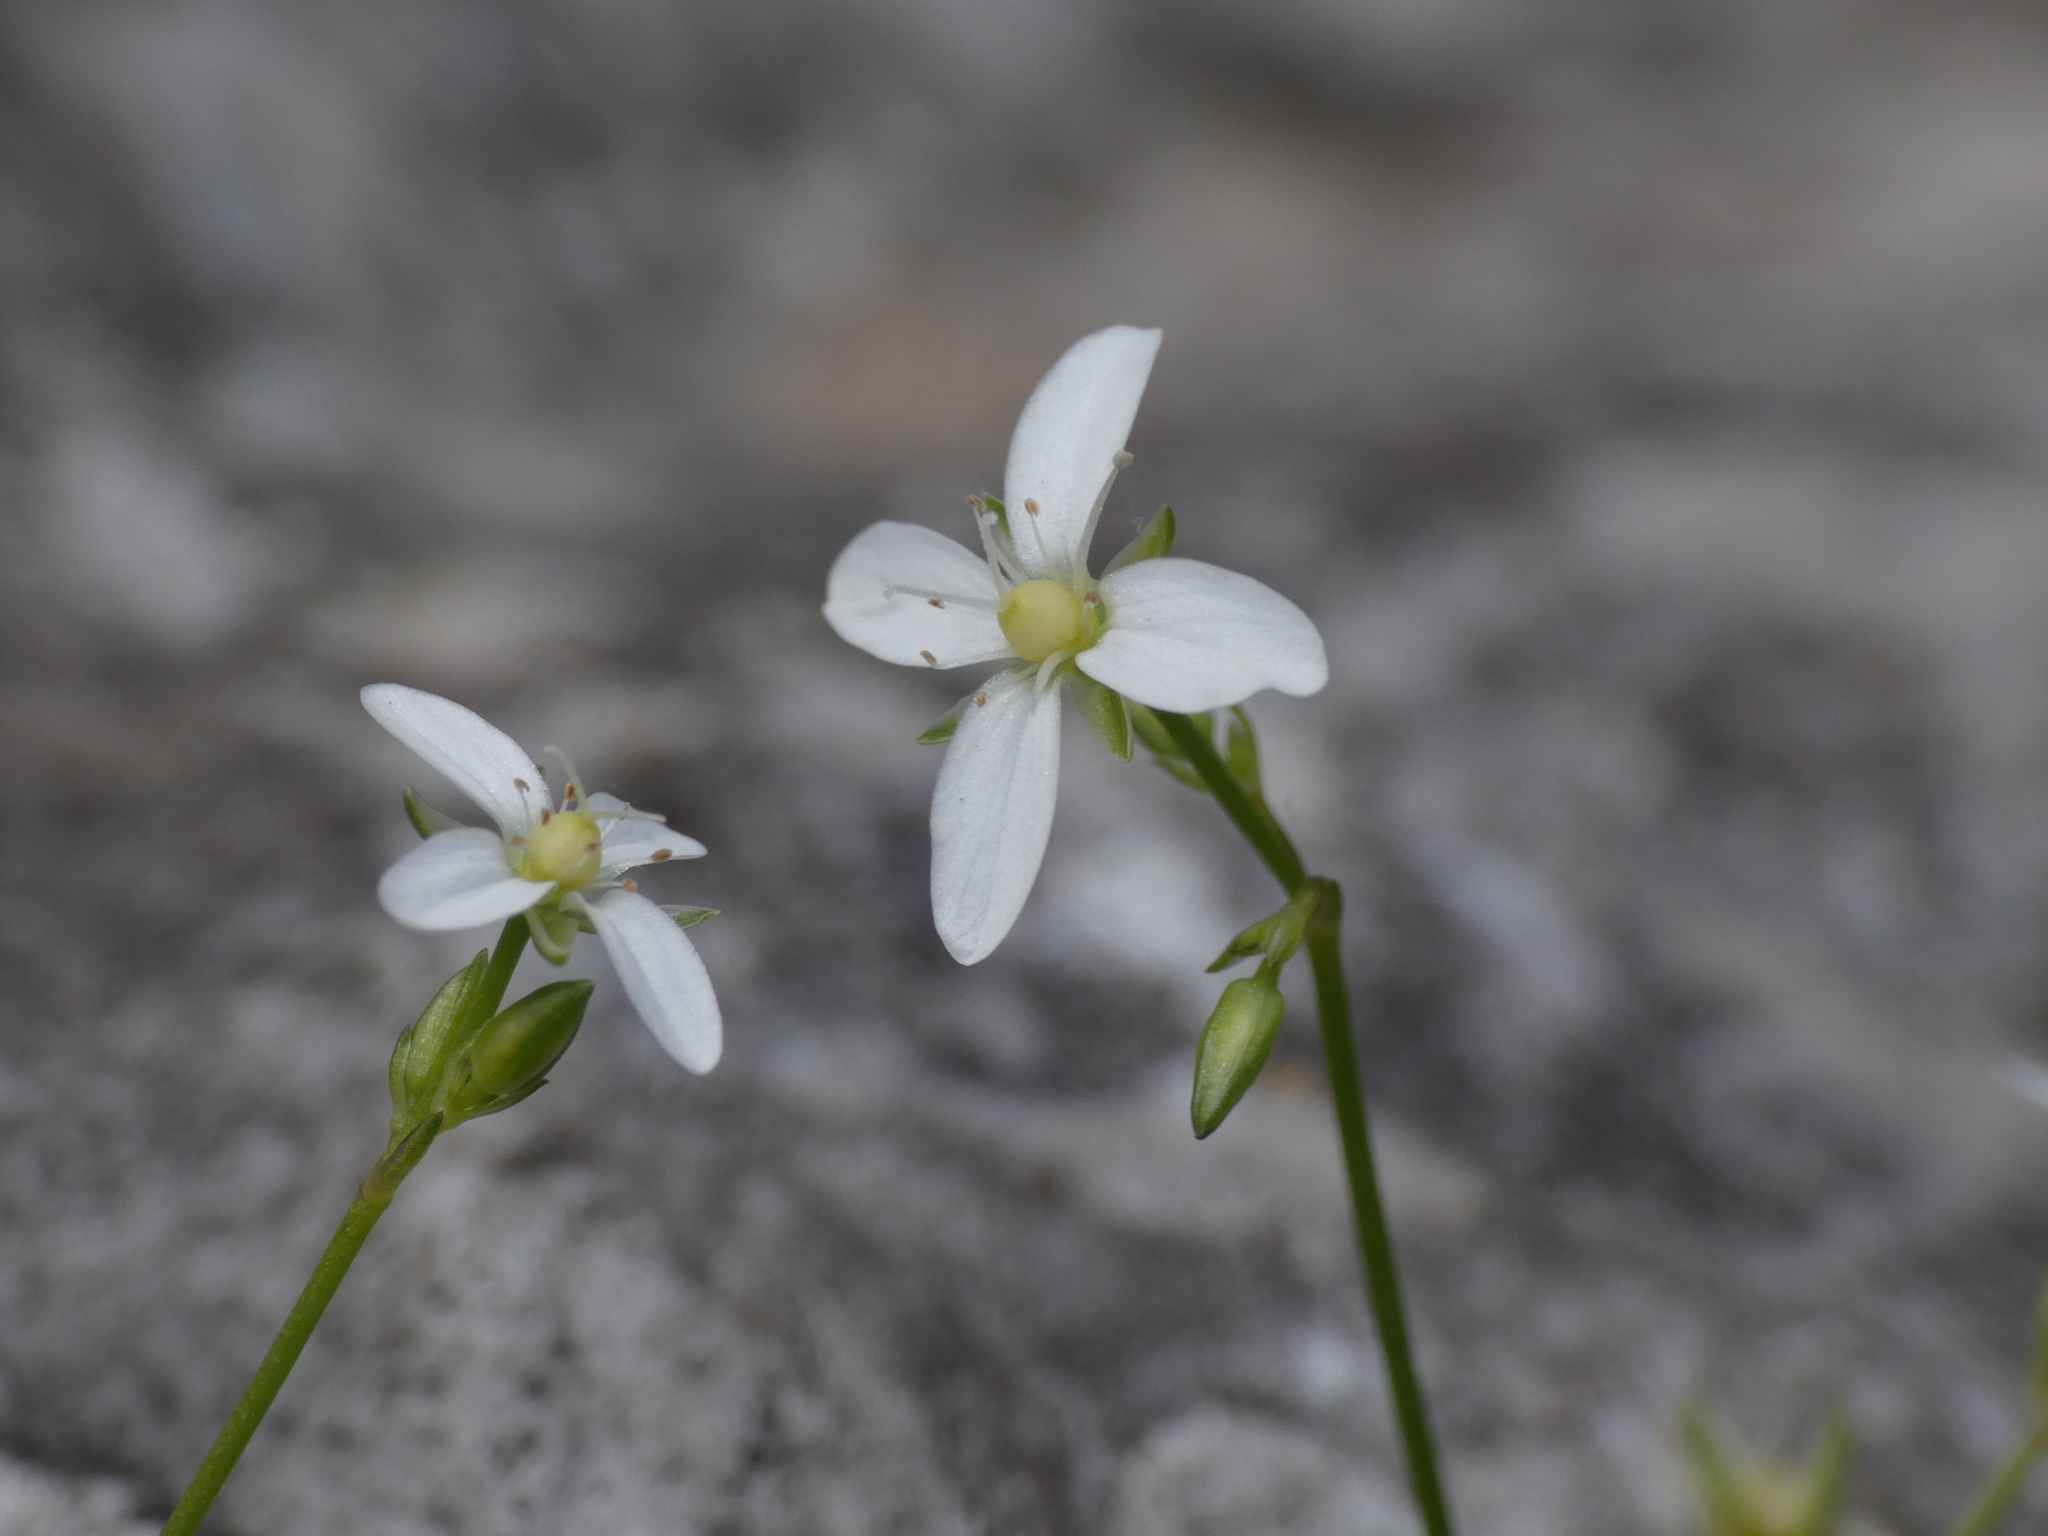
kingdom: Plantae
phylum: Tracheophyta
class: Magnoliopsida
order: Caryophyllales
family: Caryophyllaceae
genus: Moehringia
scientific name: Moehringia muscosa
